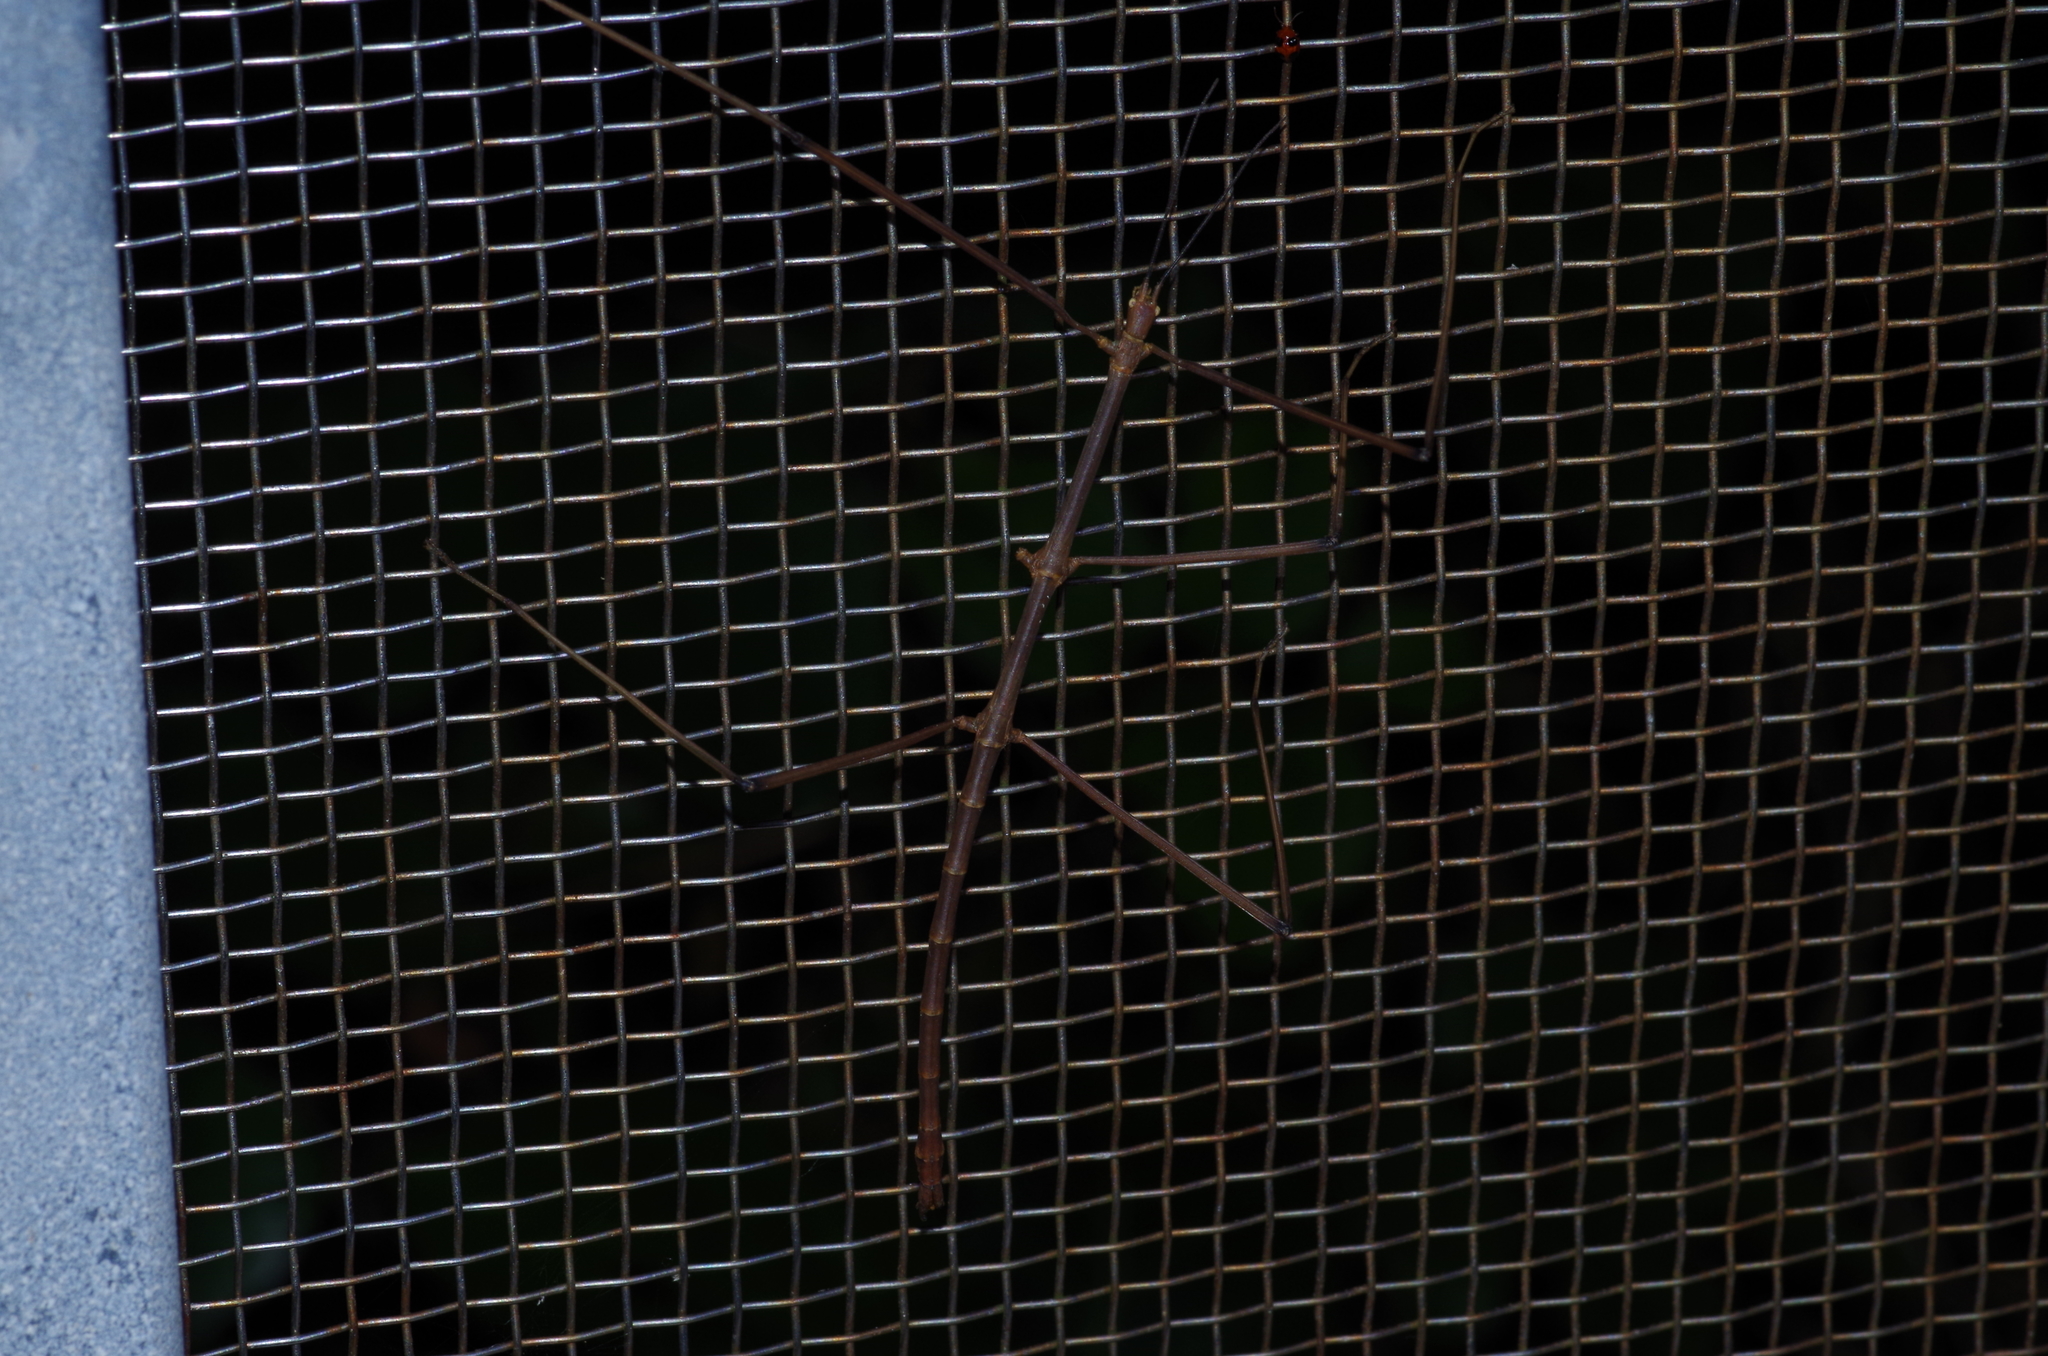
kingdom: Animalia
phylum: Arthropoda
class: Insecta
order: Phasmida
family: Phasmatidae
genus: Entoria
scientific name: Entoria miyakoensis
